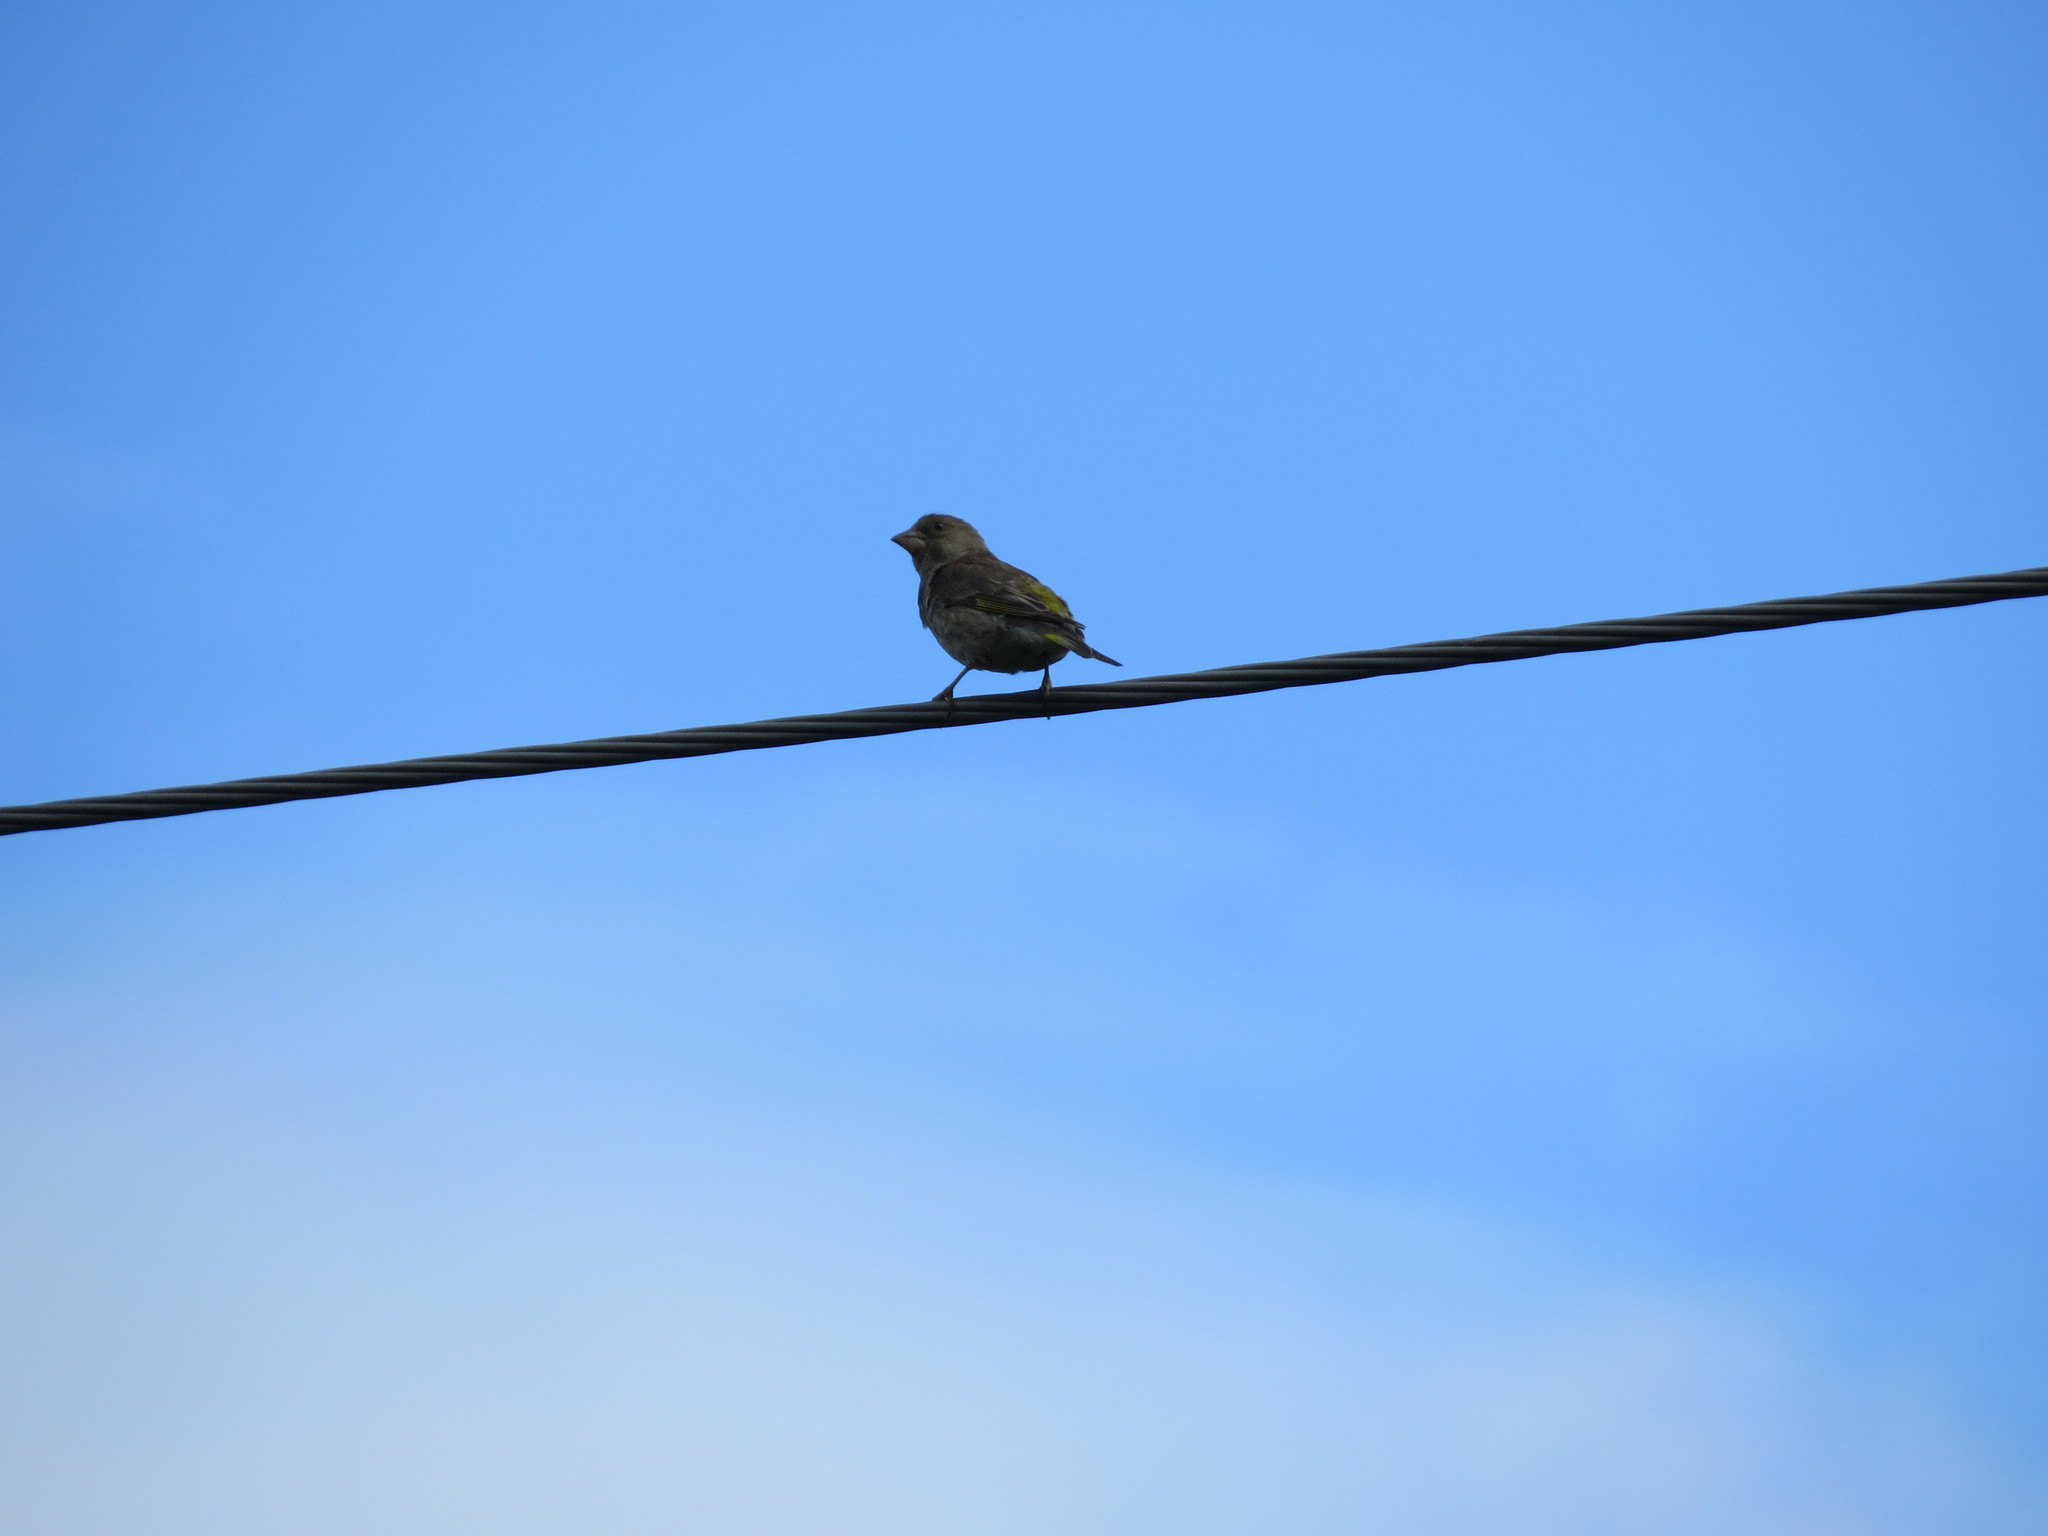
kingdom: Plantae
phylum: Tracheophyta
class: Liliopsida
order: Poales
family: Poaceae
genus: Chloris
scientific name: Chloris chloris
